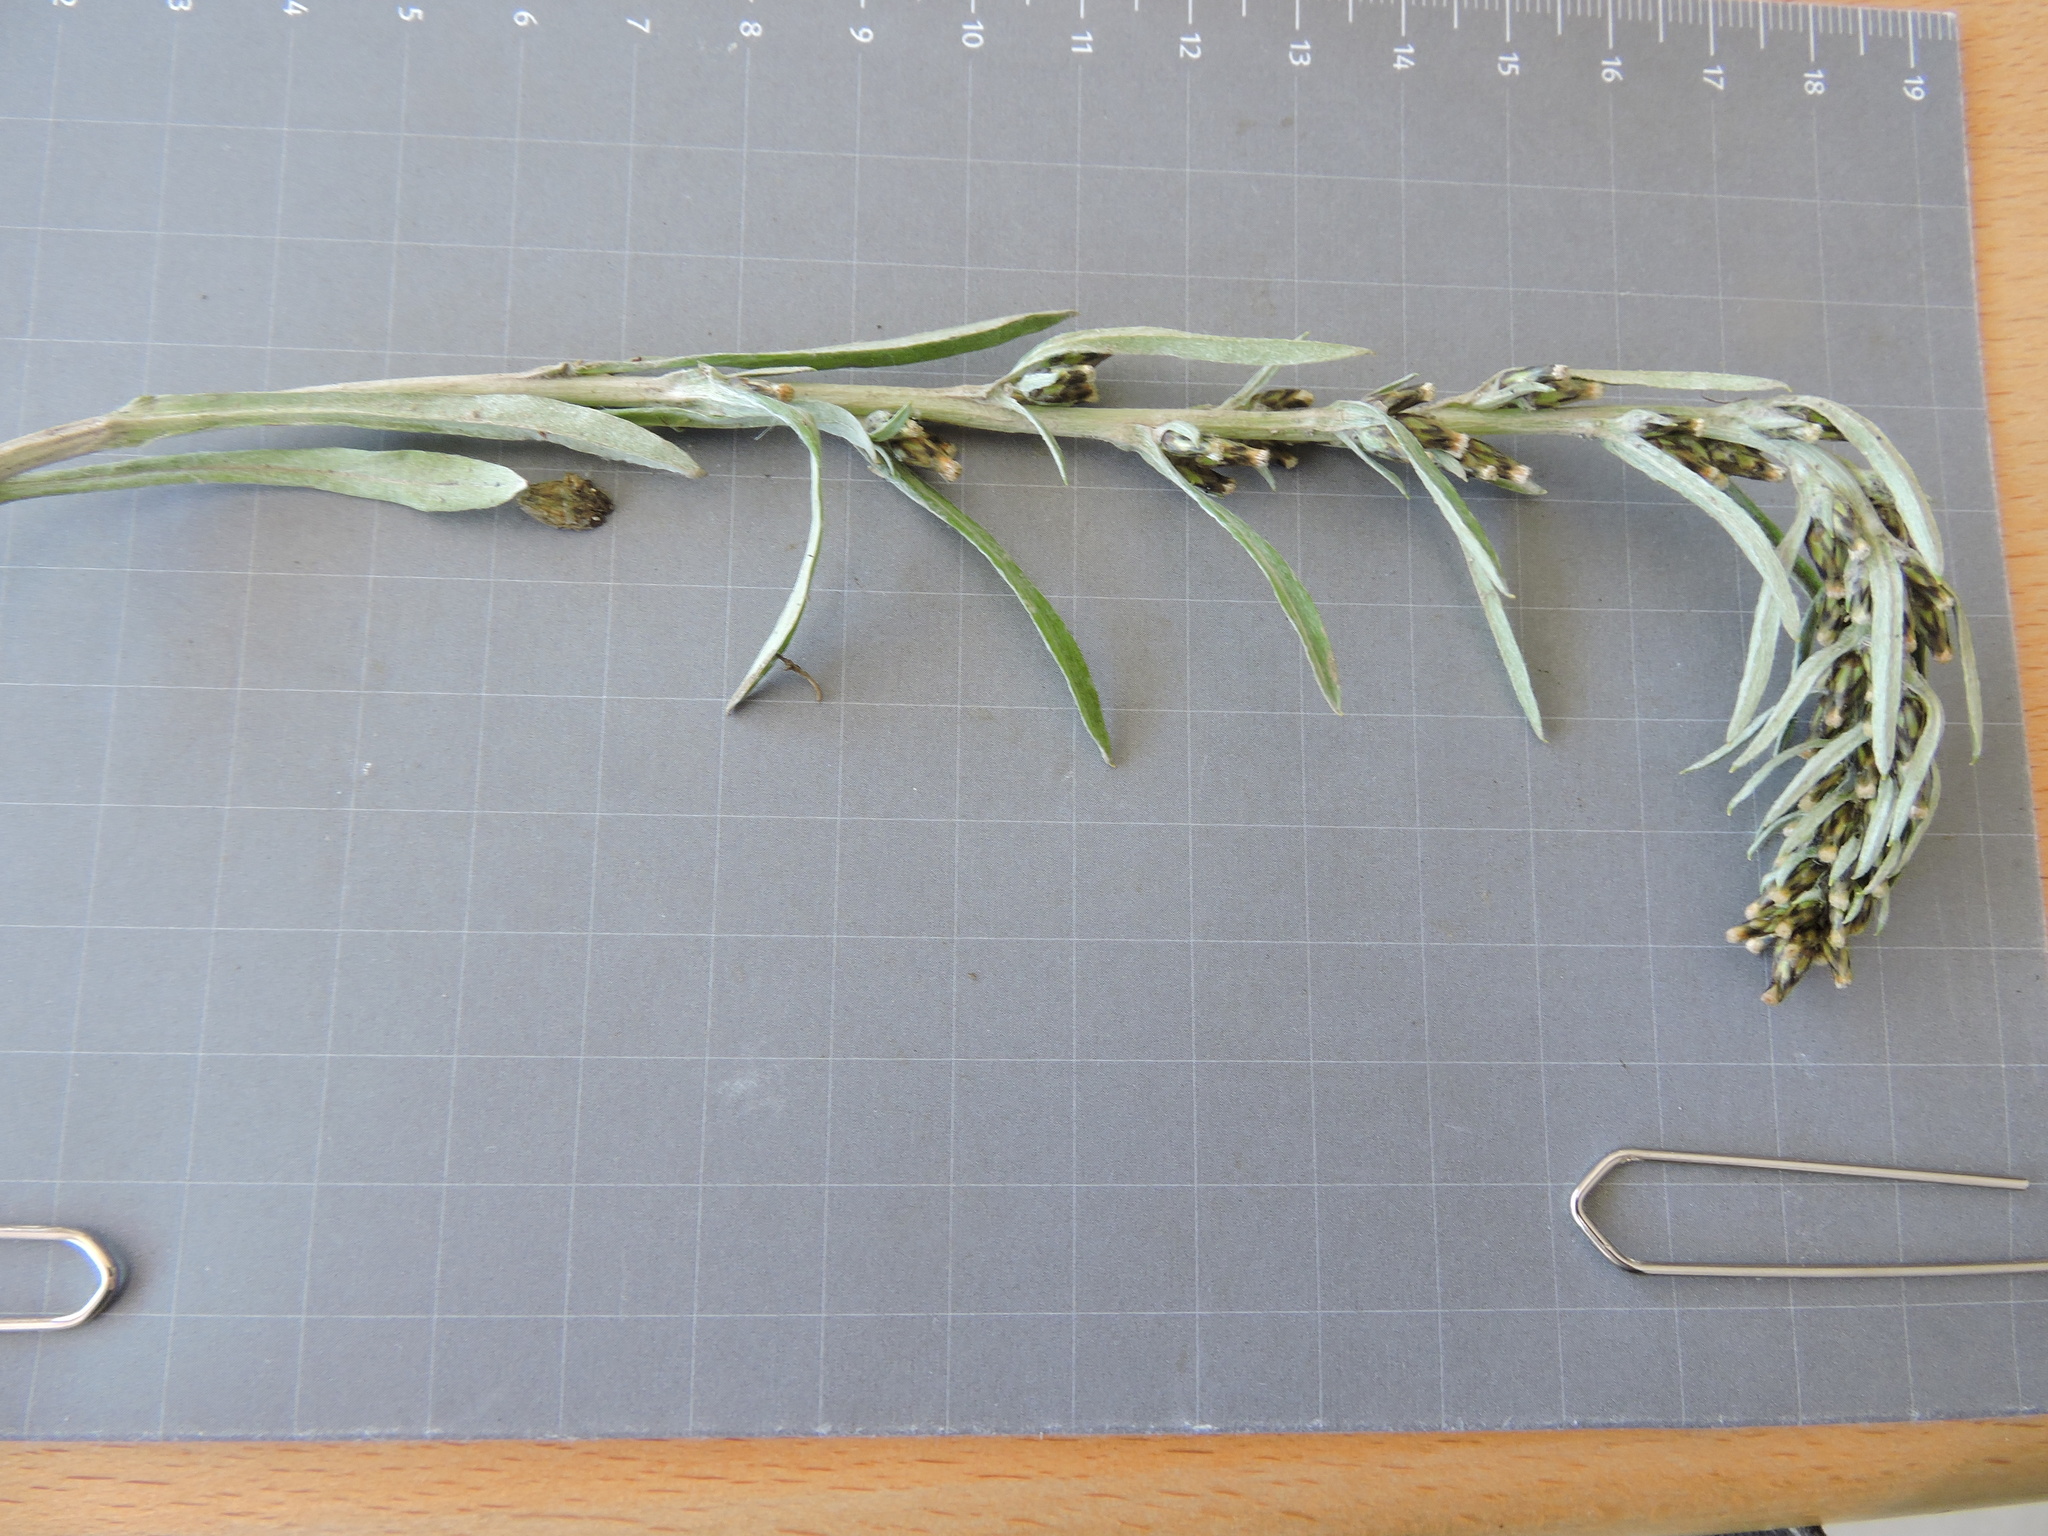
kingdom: Plantae
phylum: Tracheophyta
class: Magnoliopsida
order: Asterales
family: Asteraceae
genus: Omalotheca
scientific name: Omalotheca sylvatica
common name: Heath cudweed
